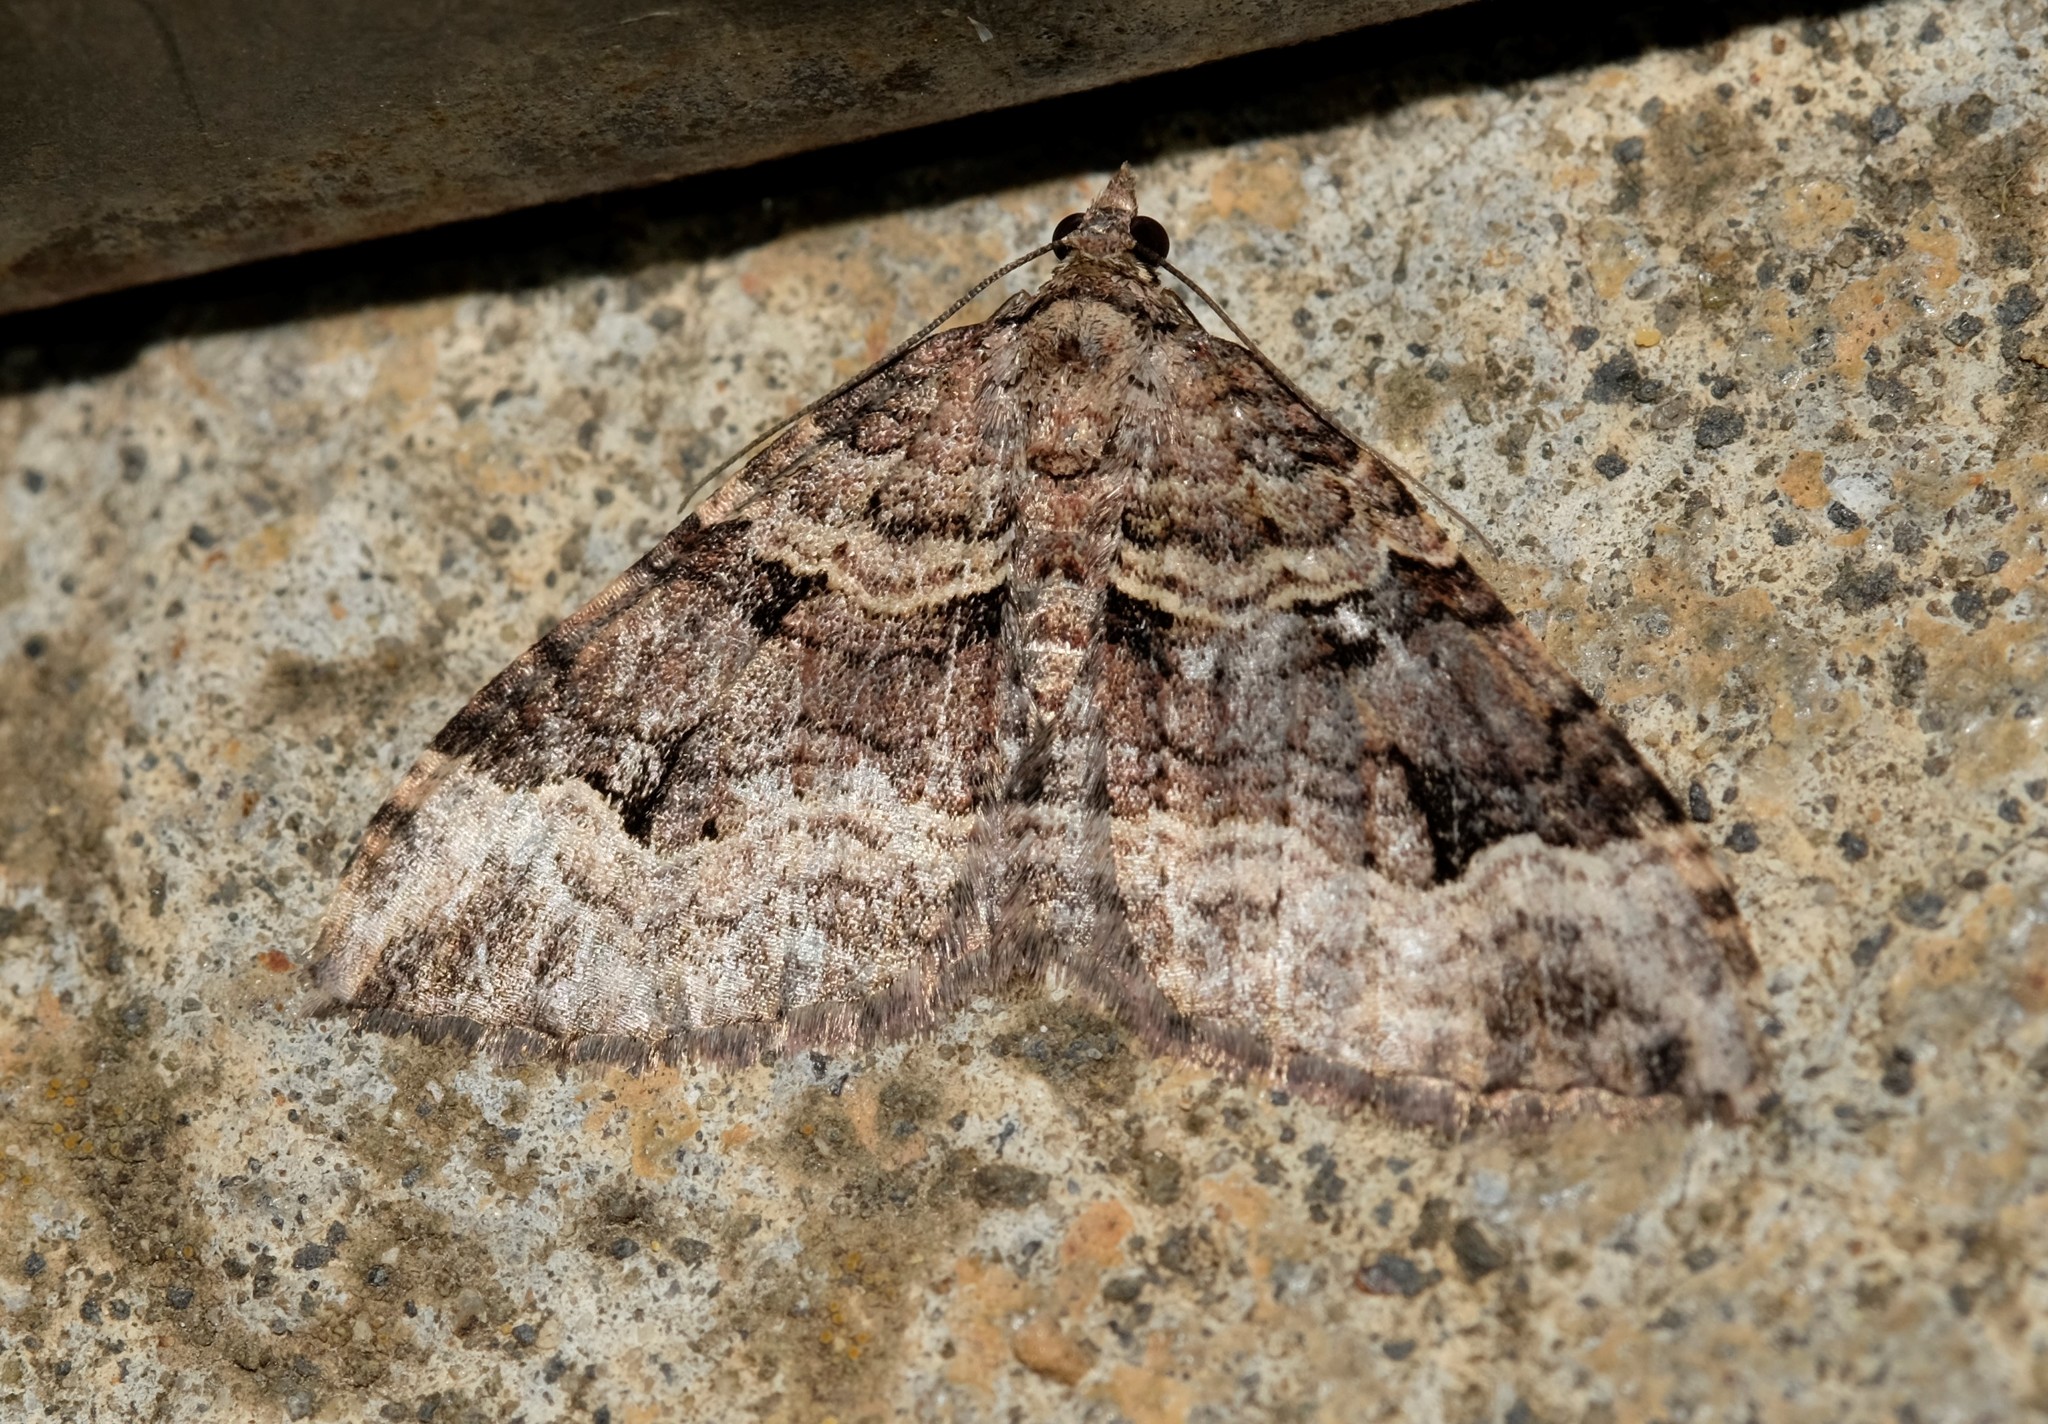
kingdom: Animalia
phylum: Arthropoda
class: Insecta
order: Lepidoptera
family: Geometridae
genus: Epyaxa
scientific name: Epyaxa subidaria
